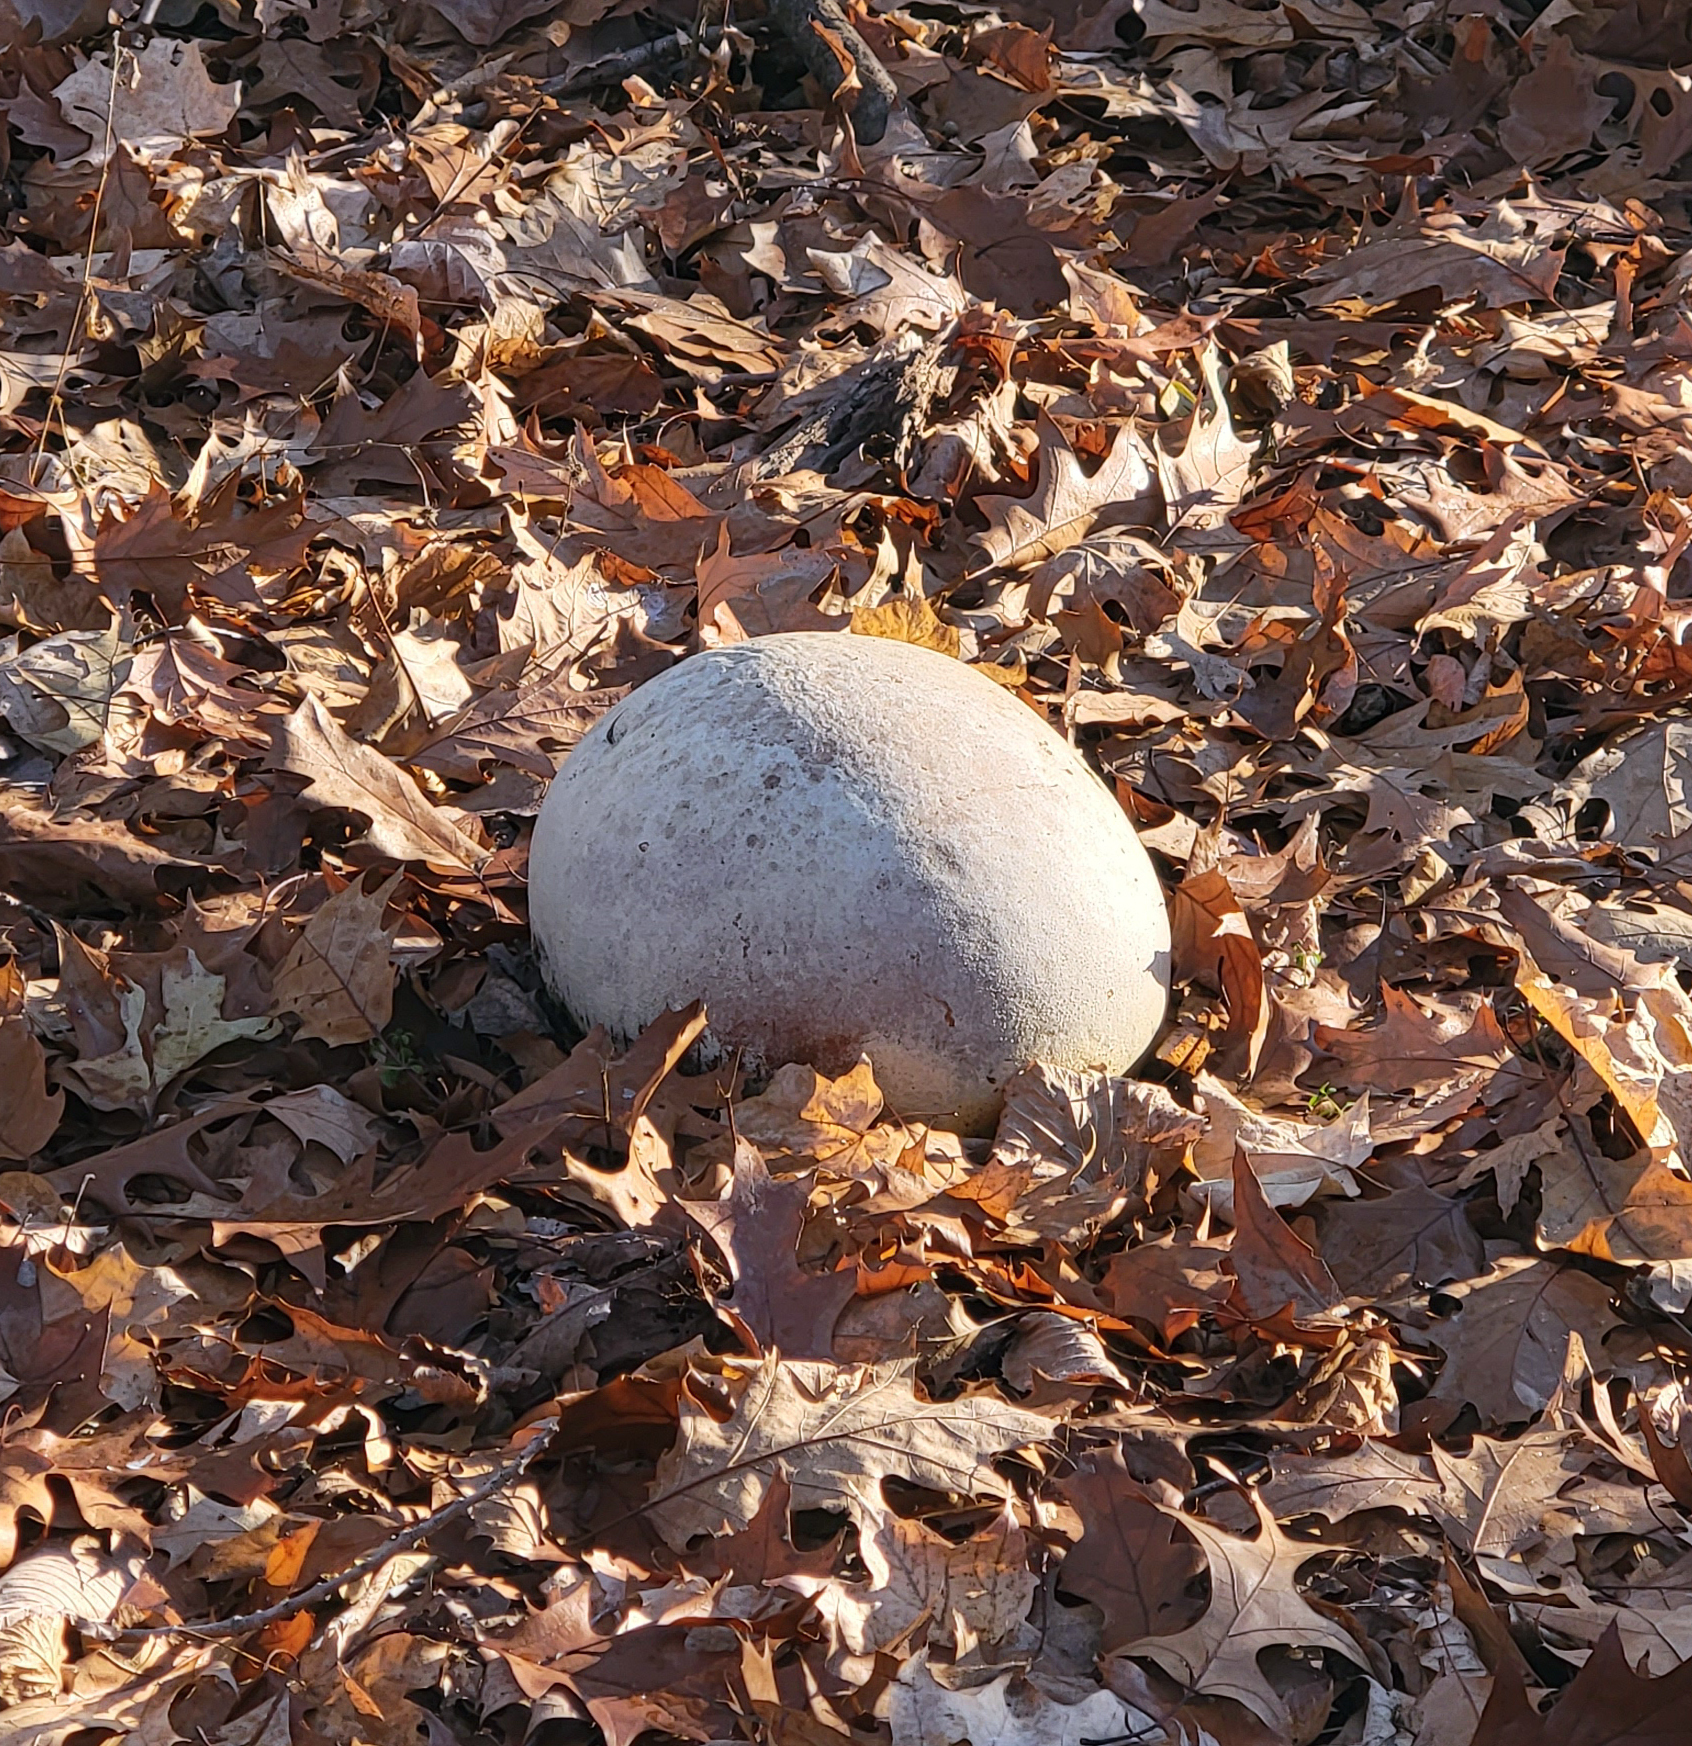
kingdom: Fungi
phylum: Basidiomycota
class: Agaricomycetes
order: Agaricales
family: Lycoperdaceae
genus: Calvatia
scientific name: Calvatia gigantea
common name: Giant puffball
